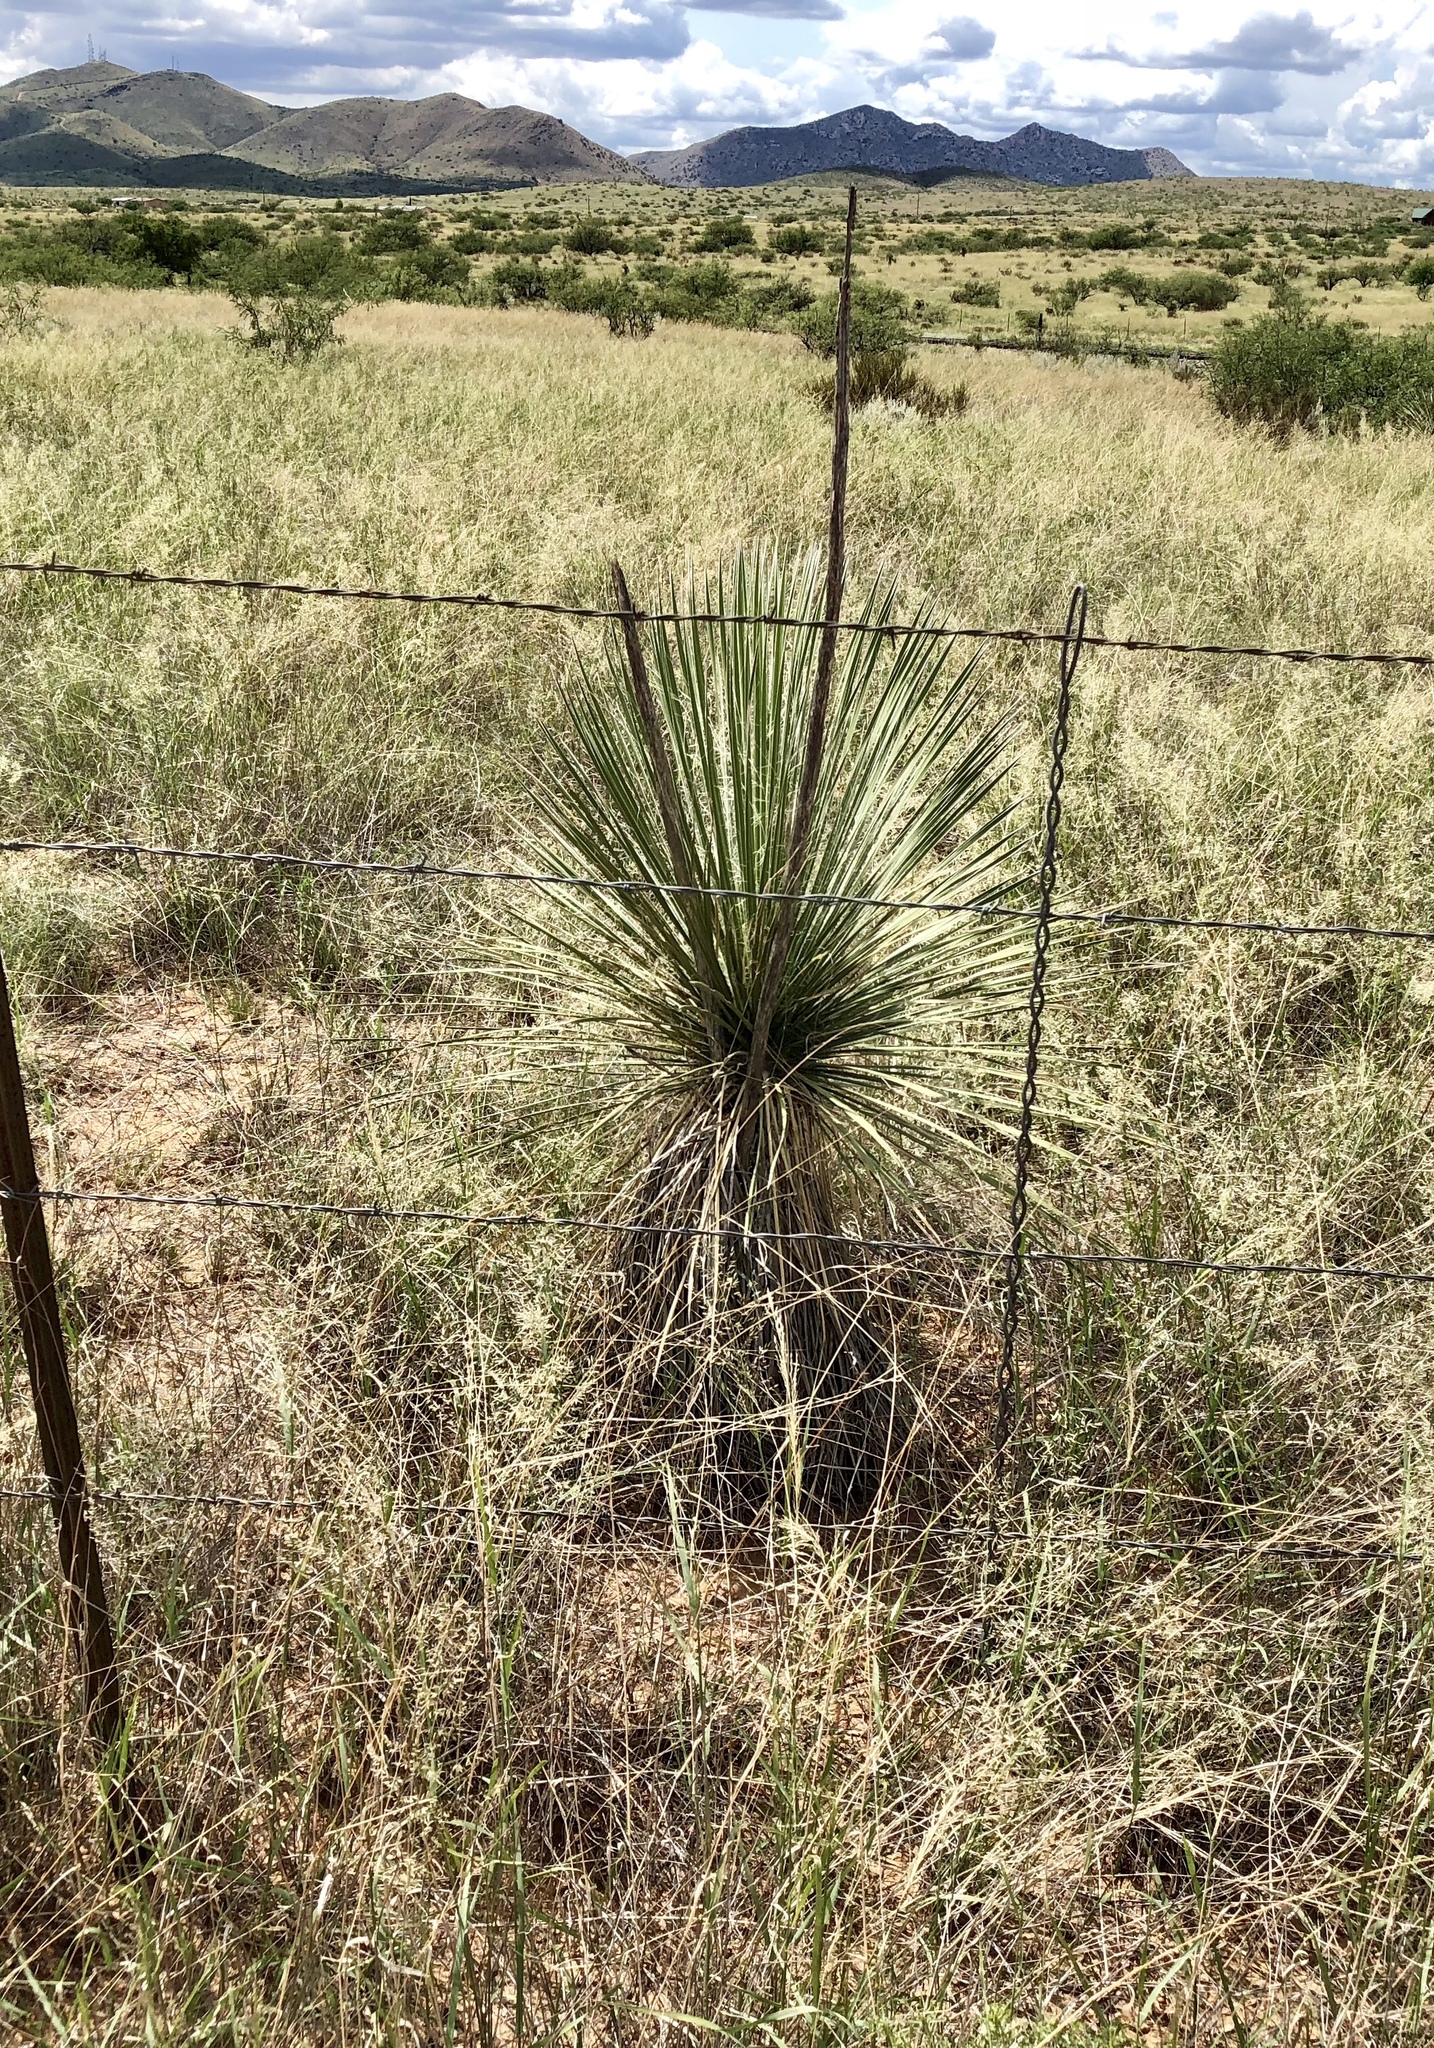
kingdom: Plantae
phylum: Tracheophyta
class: Liliopsida
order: Asparagales
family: Asparagaceae
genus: Yucca
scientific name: Yucca elata
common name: Palmella
